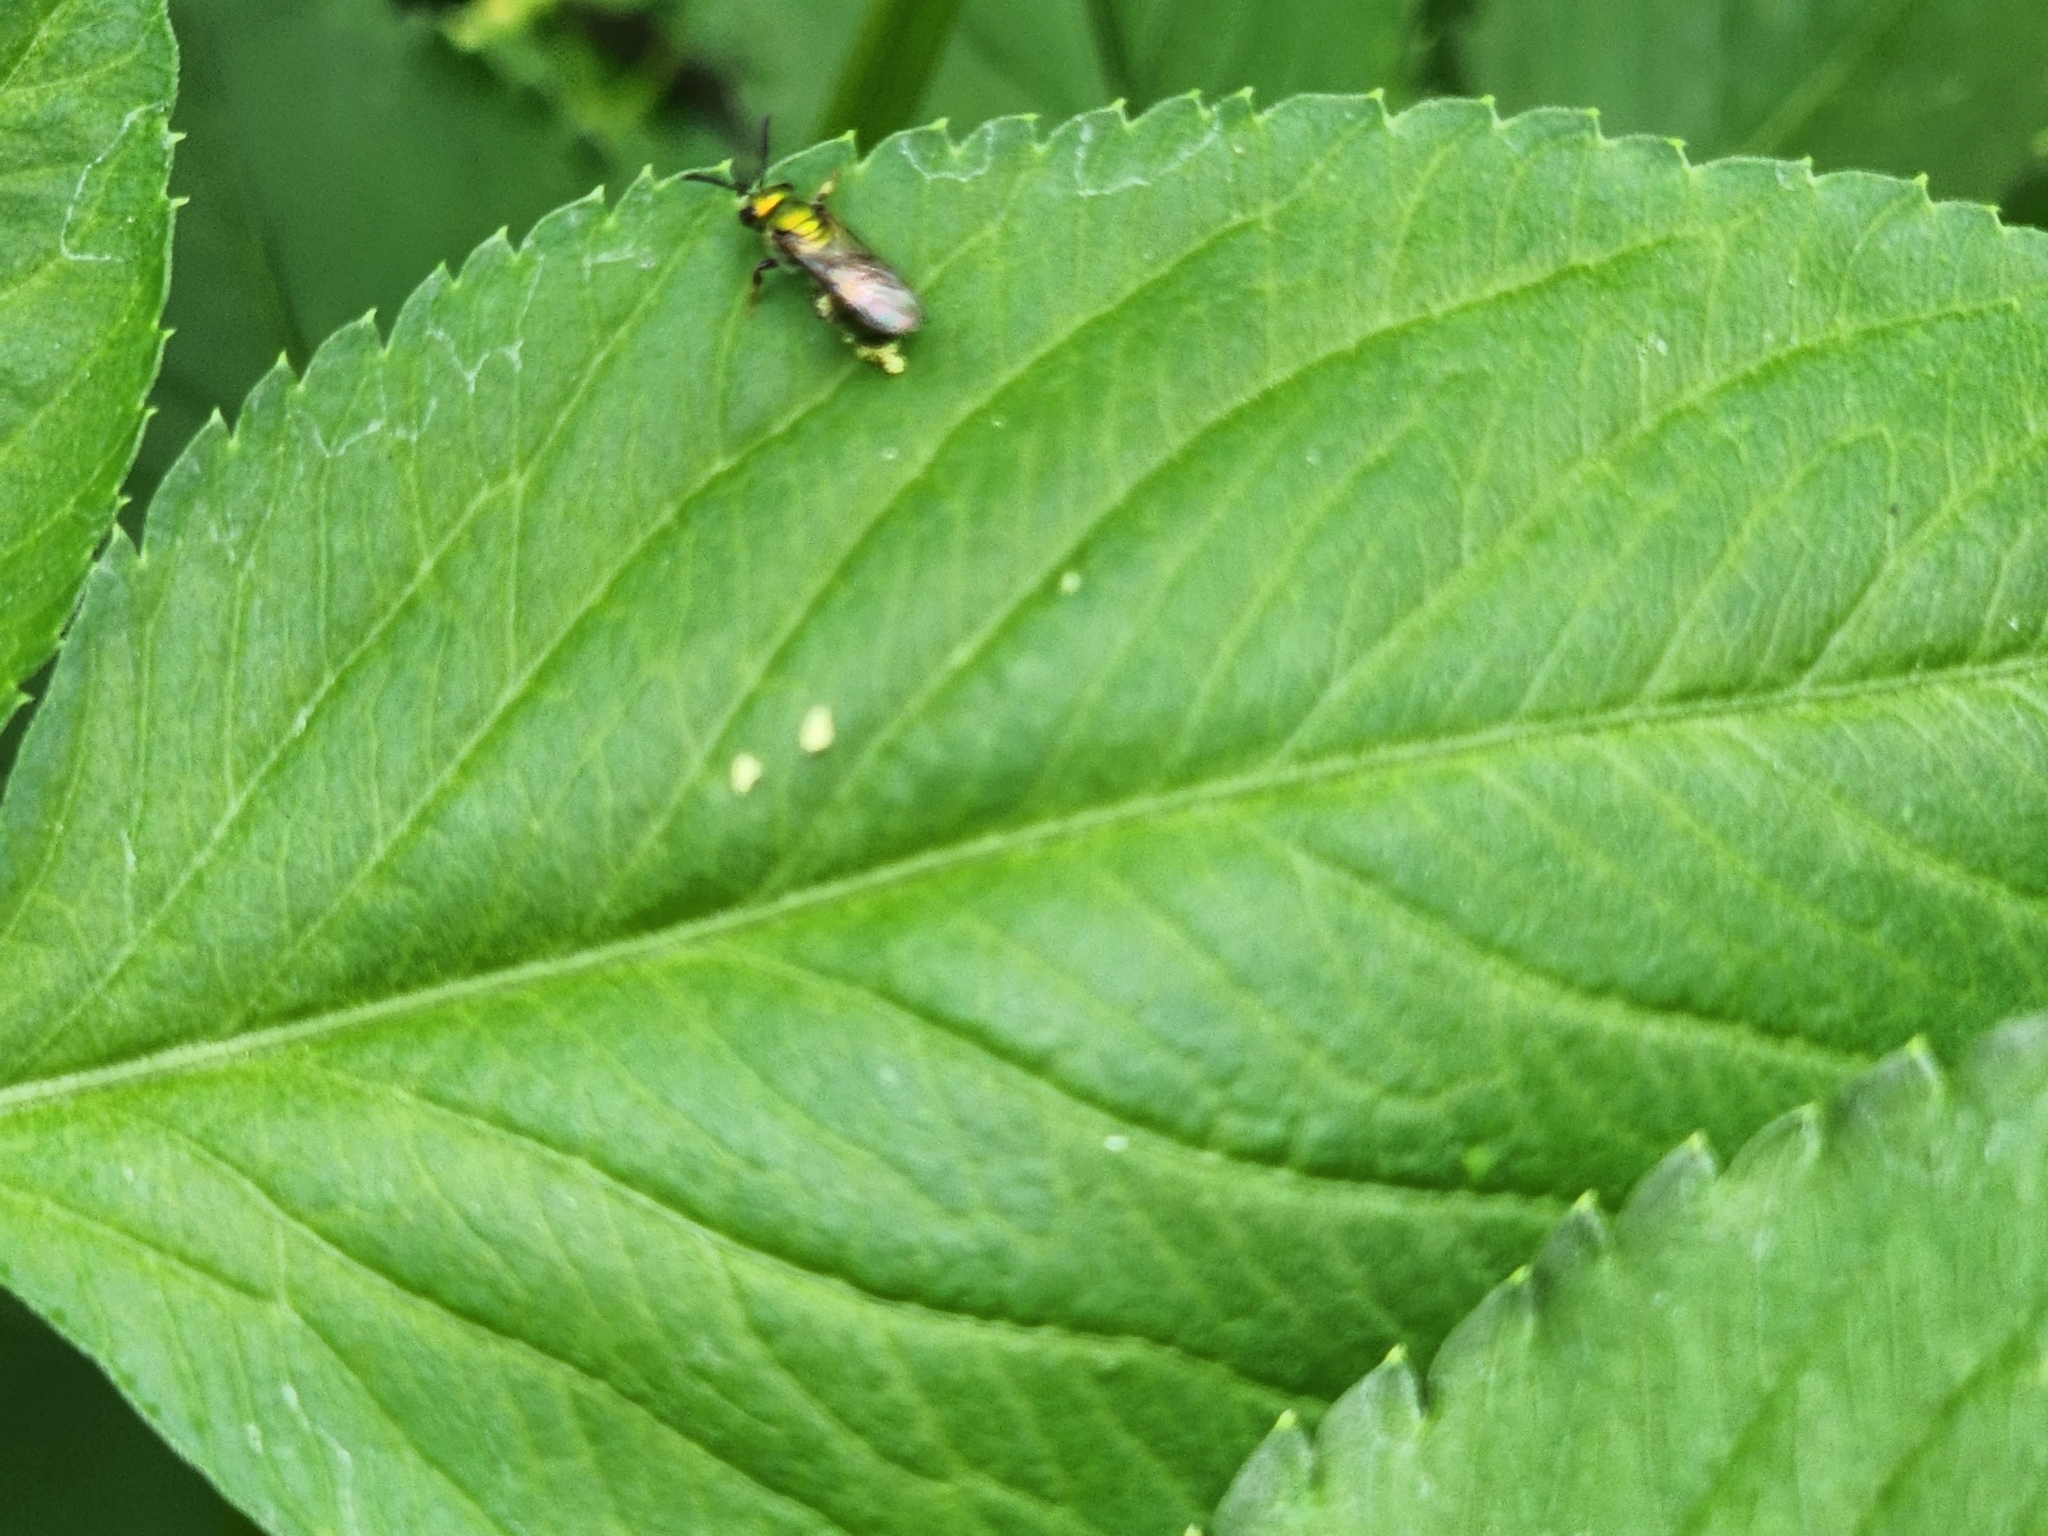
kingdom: Animalia
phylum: Arthropoda
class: Insecta
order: Hymenoptera
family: Halictidae
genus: Augochlora
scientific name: Augochlora pura
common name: Pure green sweat bee
